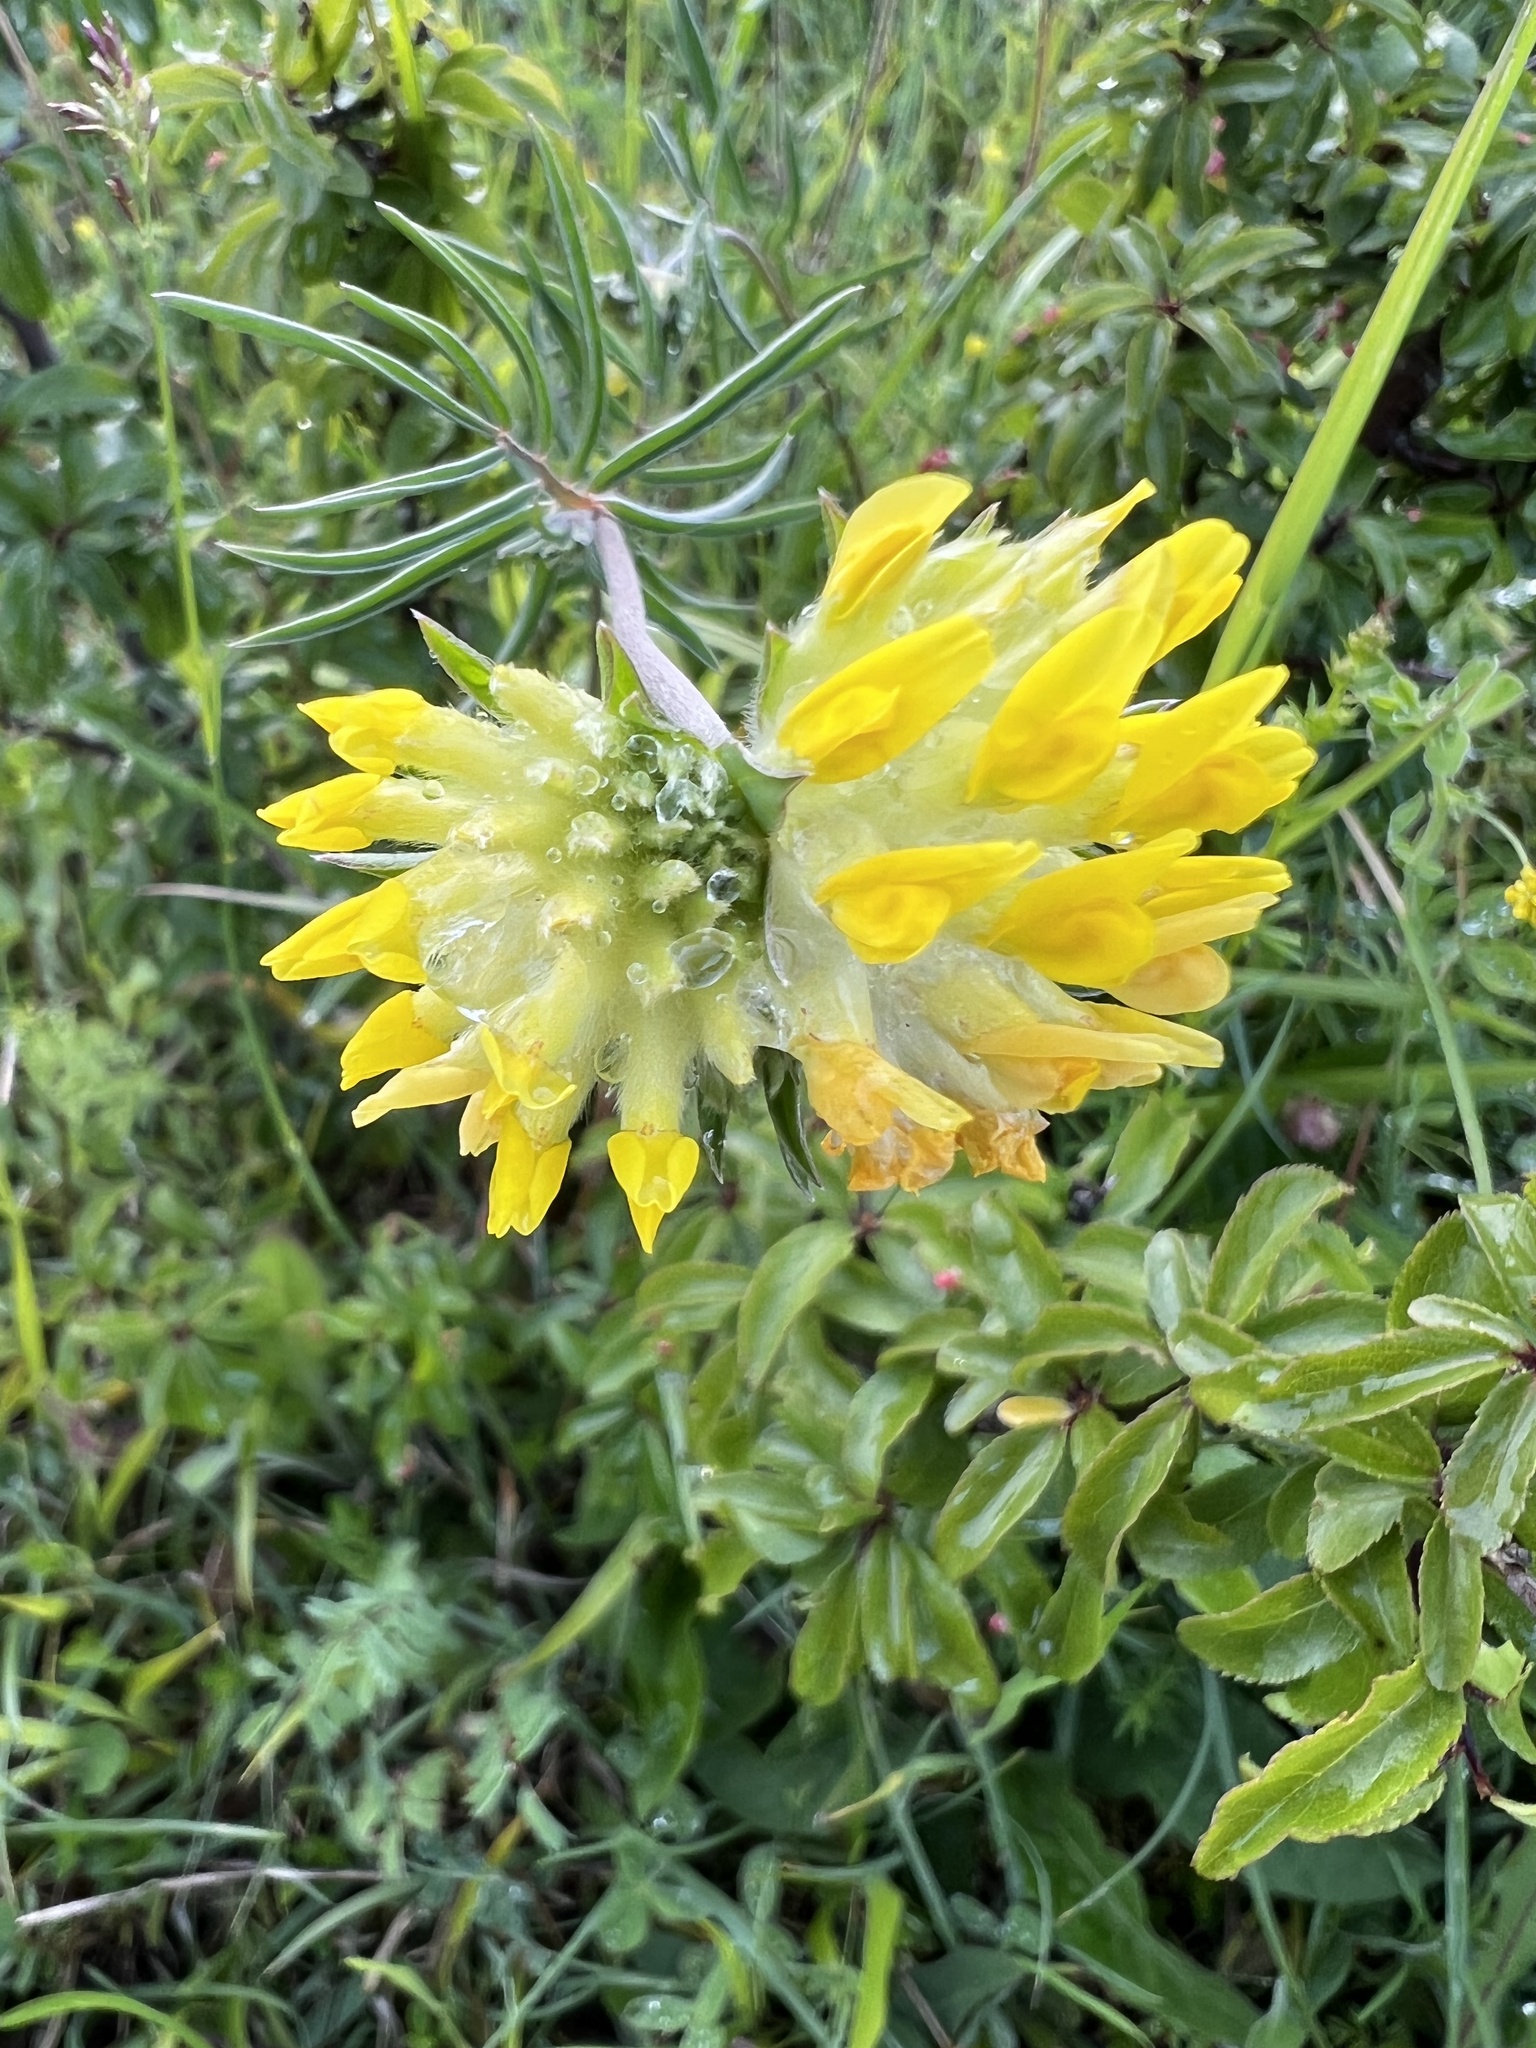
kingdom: Plantae
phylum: Tracheophyta
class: Magnoliopsida
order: Fabales
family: Fabaceae
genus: Anthyllis
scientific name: Anthyllis vulneraria
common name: Kidney vetch
